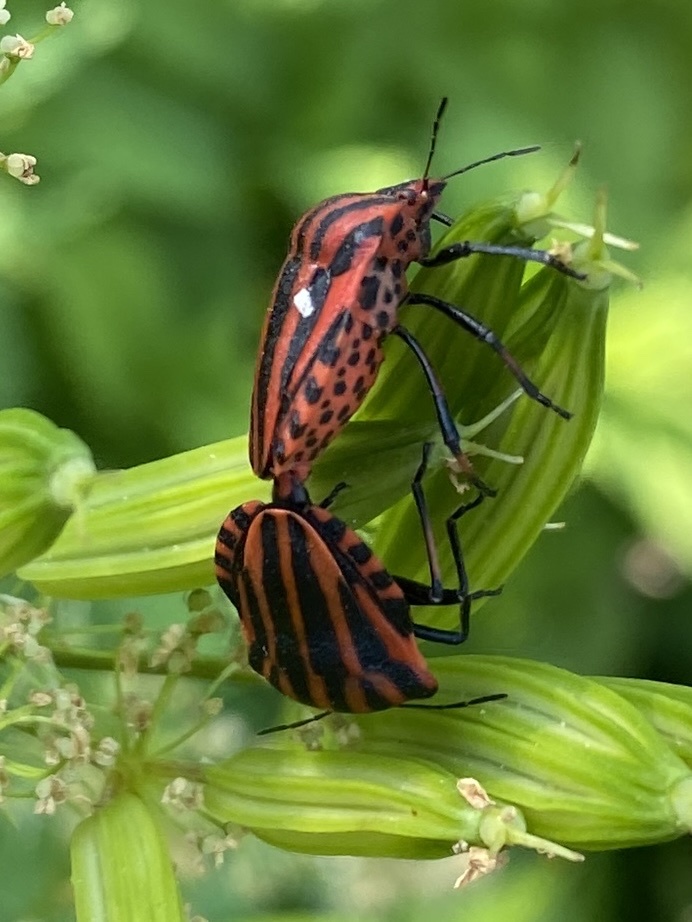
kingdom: Animalia
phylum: Arthropoda
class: Insecta
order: Hemiptera
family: Pentatomidae
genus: Graphosoma
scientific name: Graphosoma italicum
